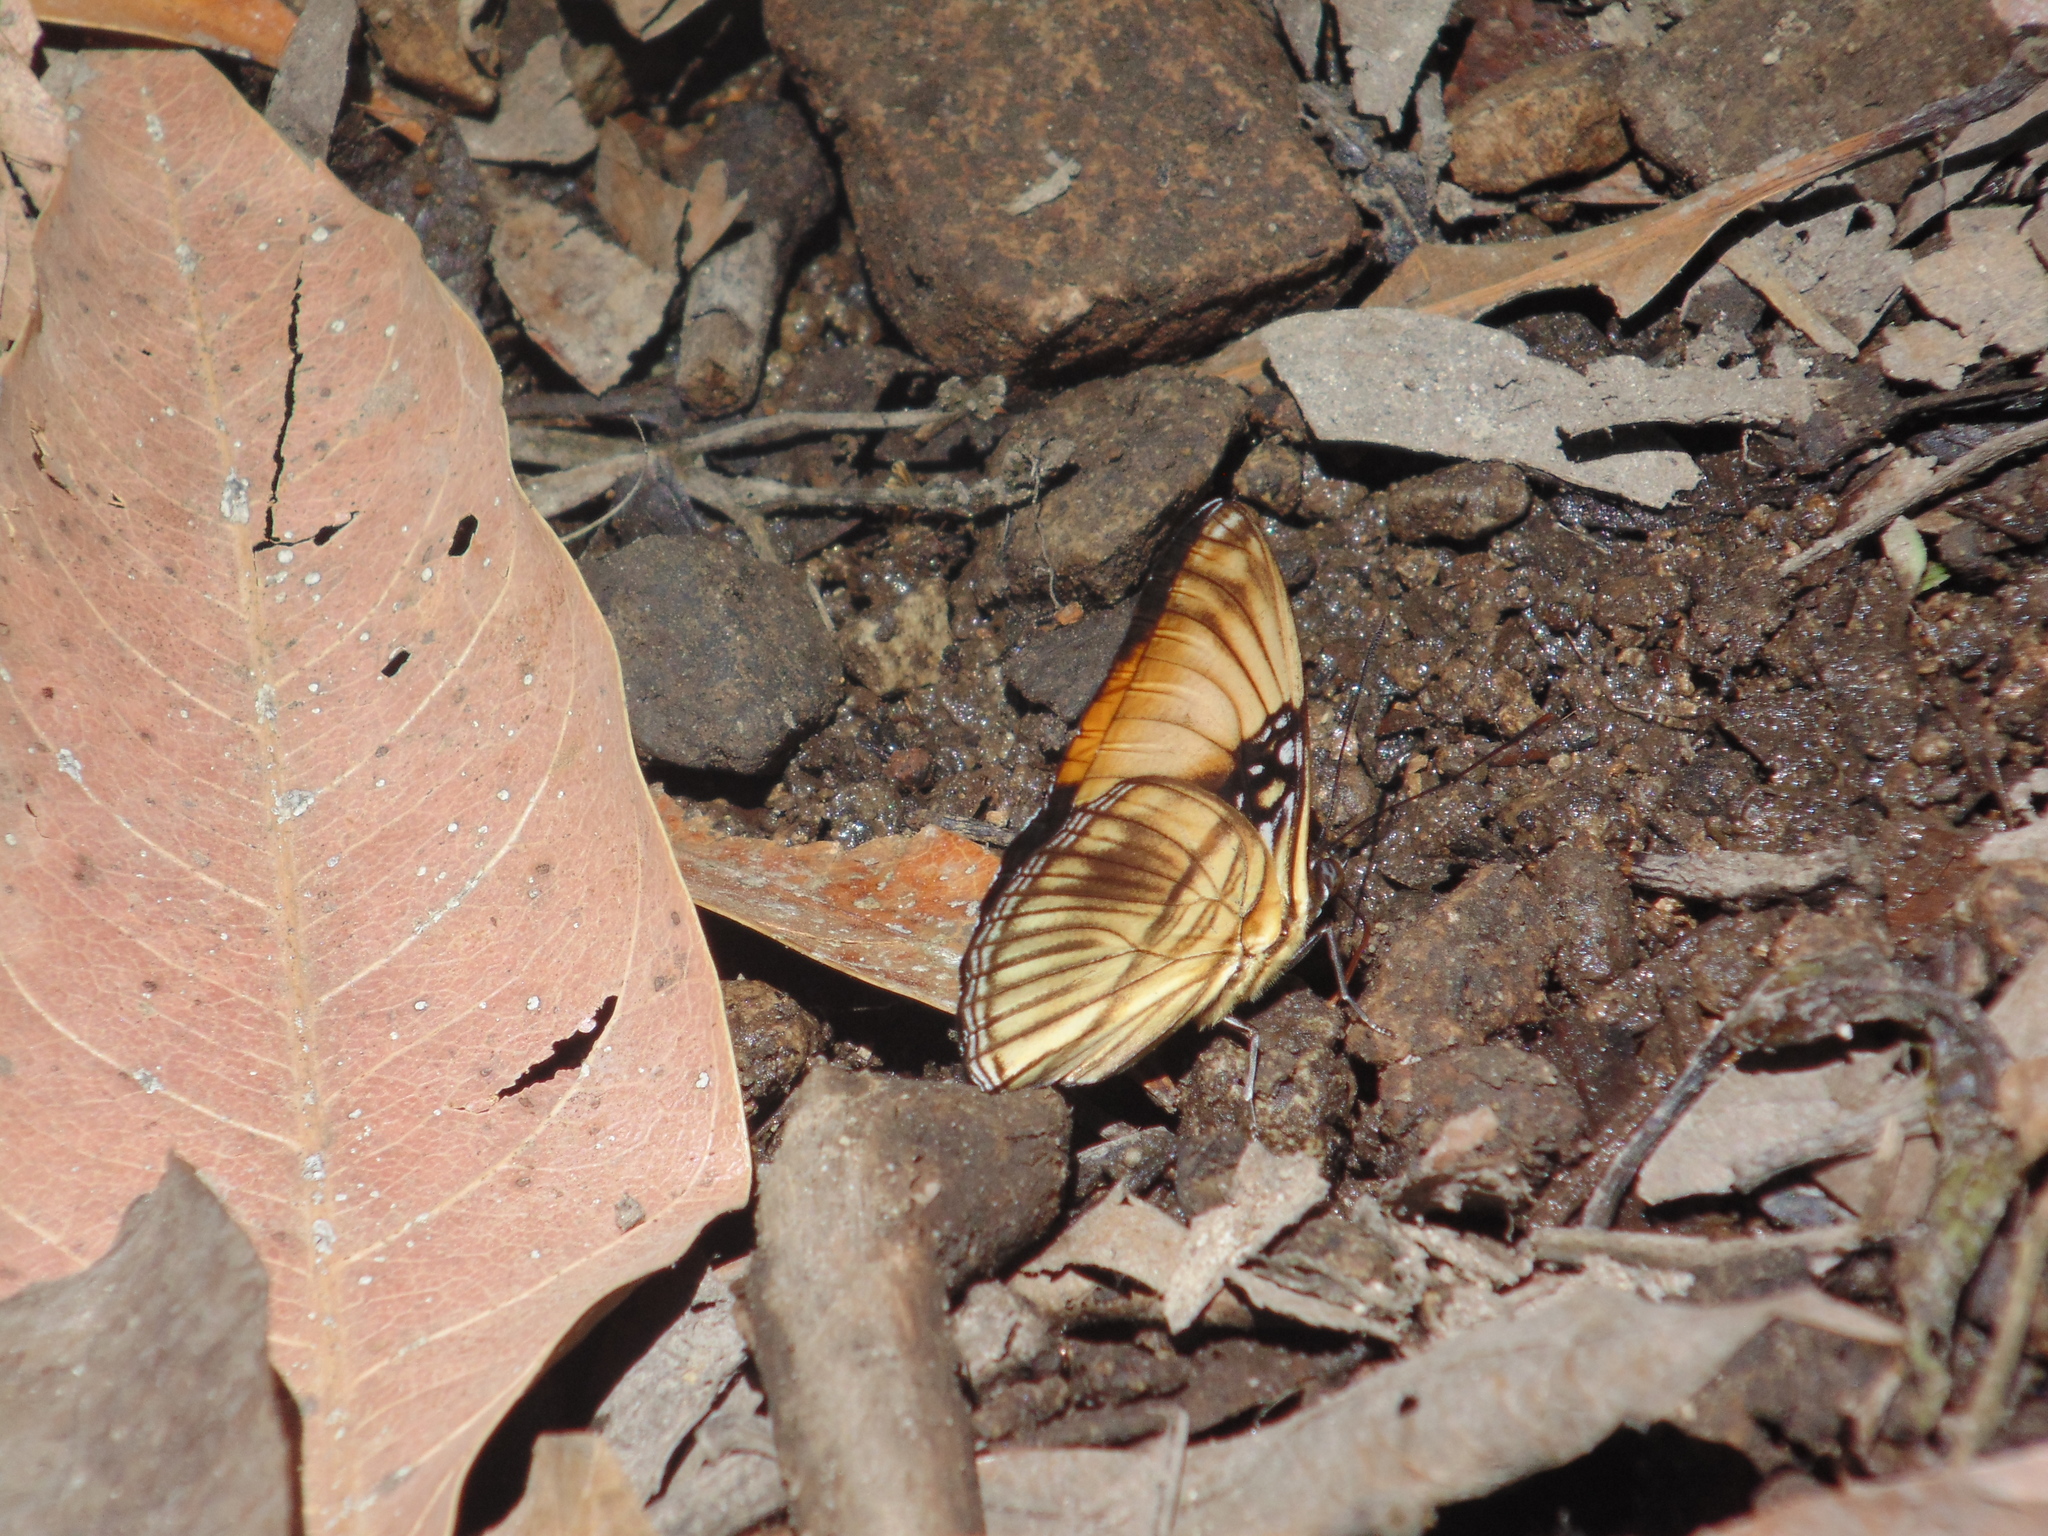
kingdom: Animalia
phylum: Arthropoda
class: Insecta
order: Lepidoptera
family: Nymphalidae
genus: Limenitis
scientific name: Limenitis melanthe
